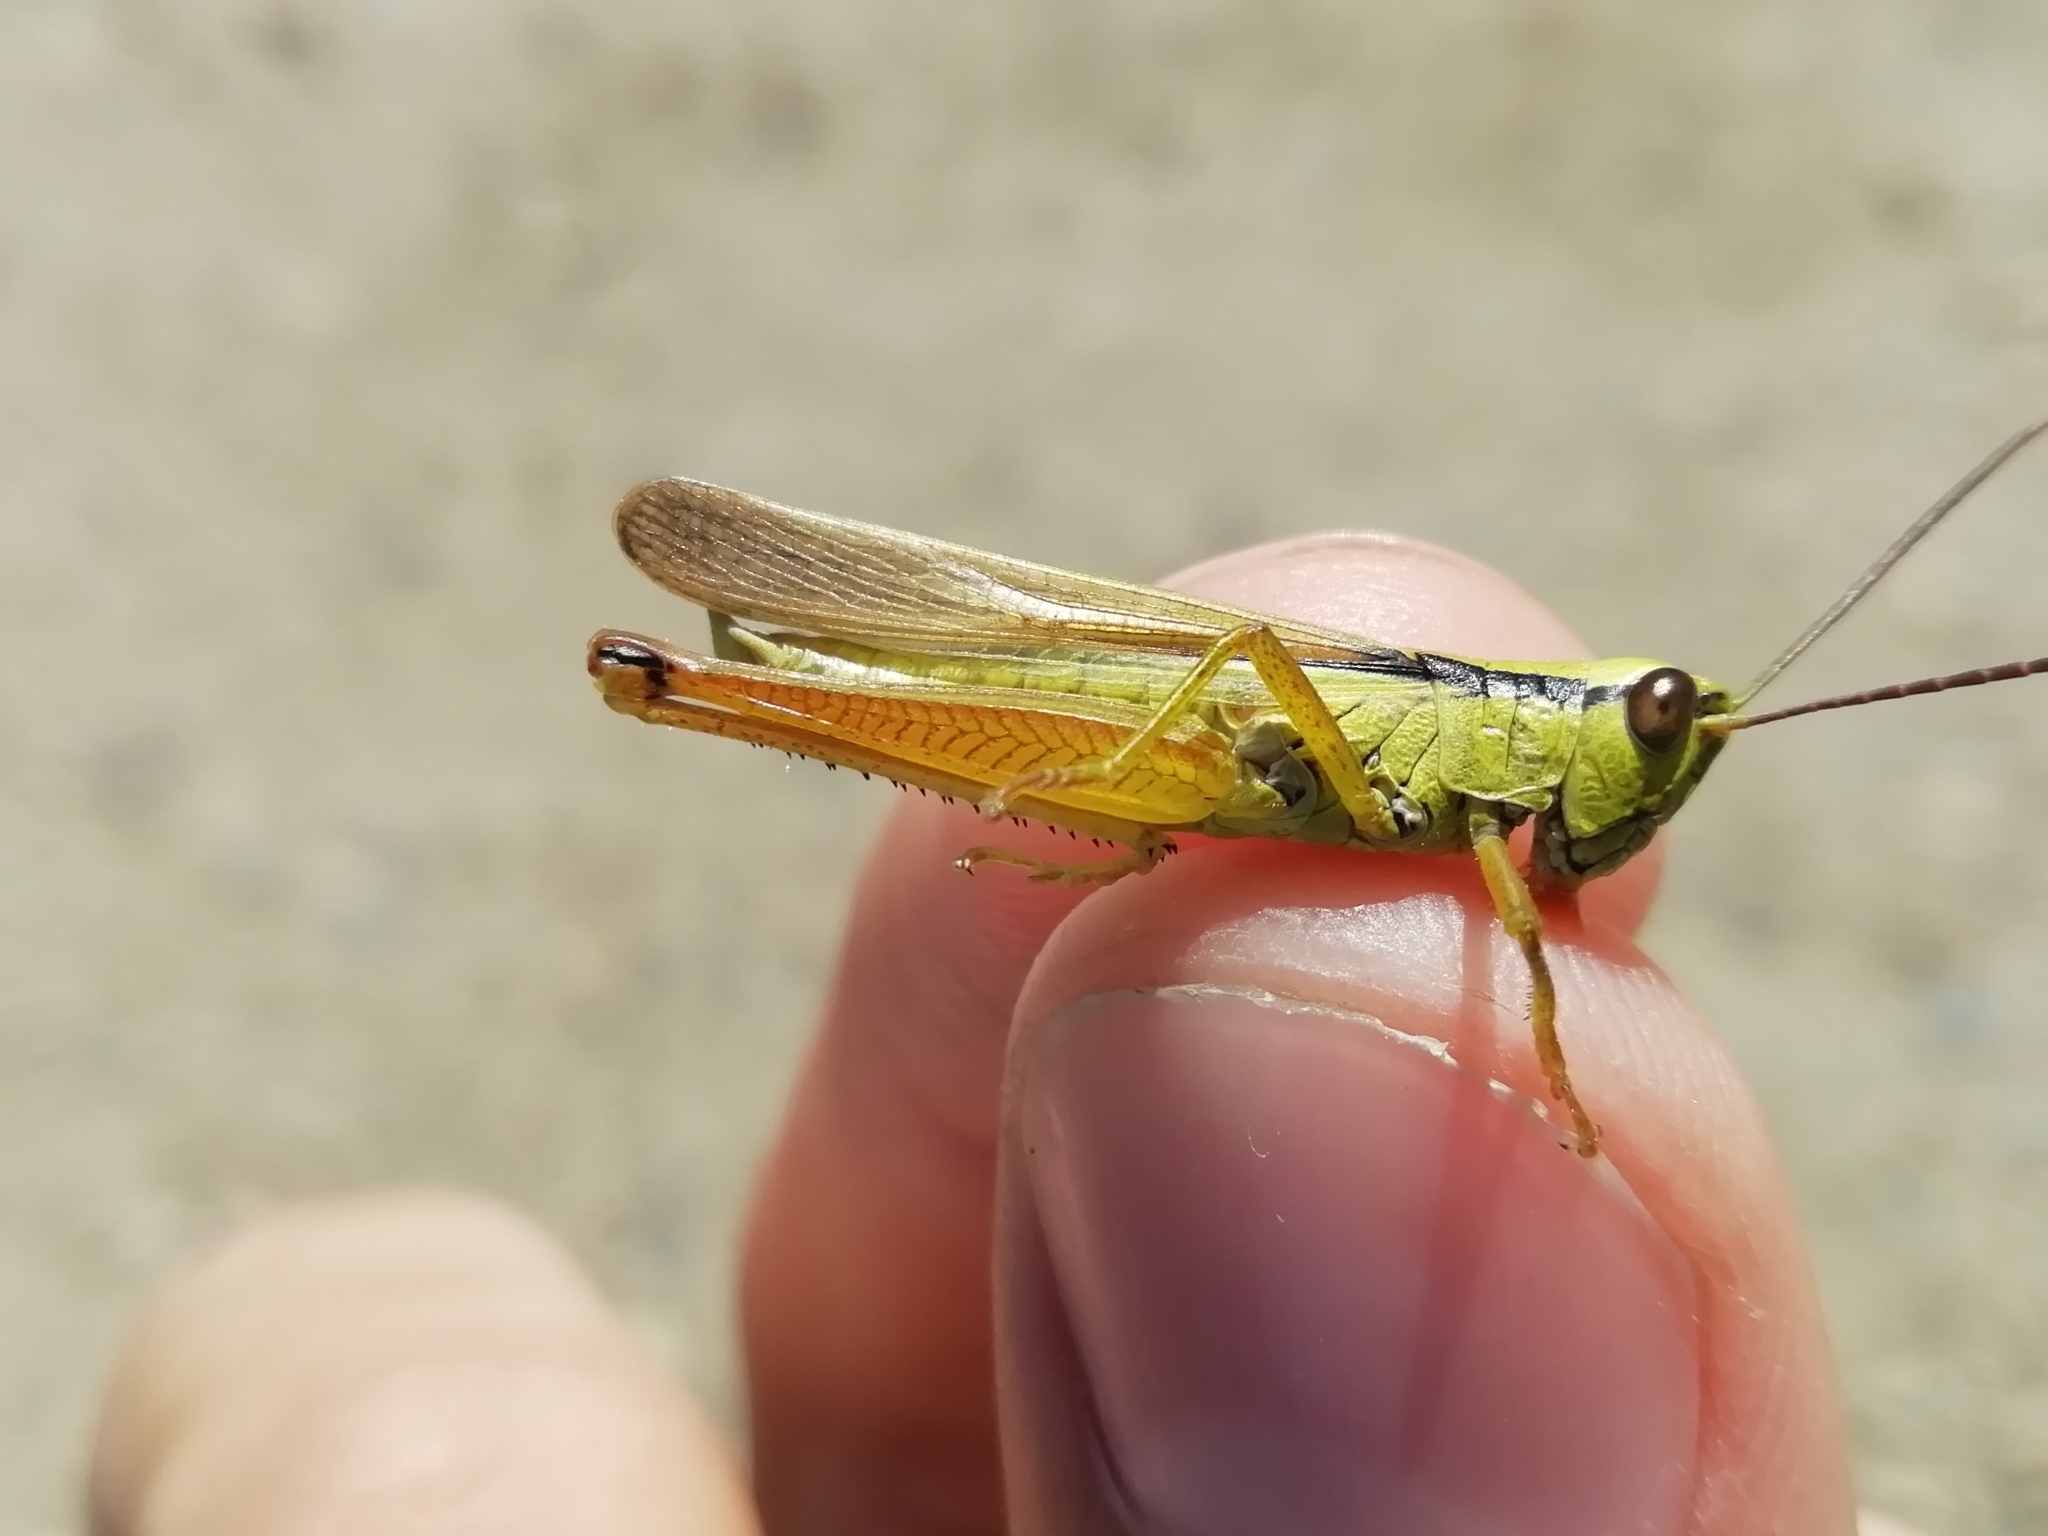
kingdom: Animalia
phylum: Arthropoda
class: Insecta
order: Orthoptera
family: Acrididae
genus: Mecostethus
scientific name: Mecostethus parapleurus
